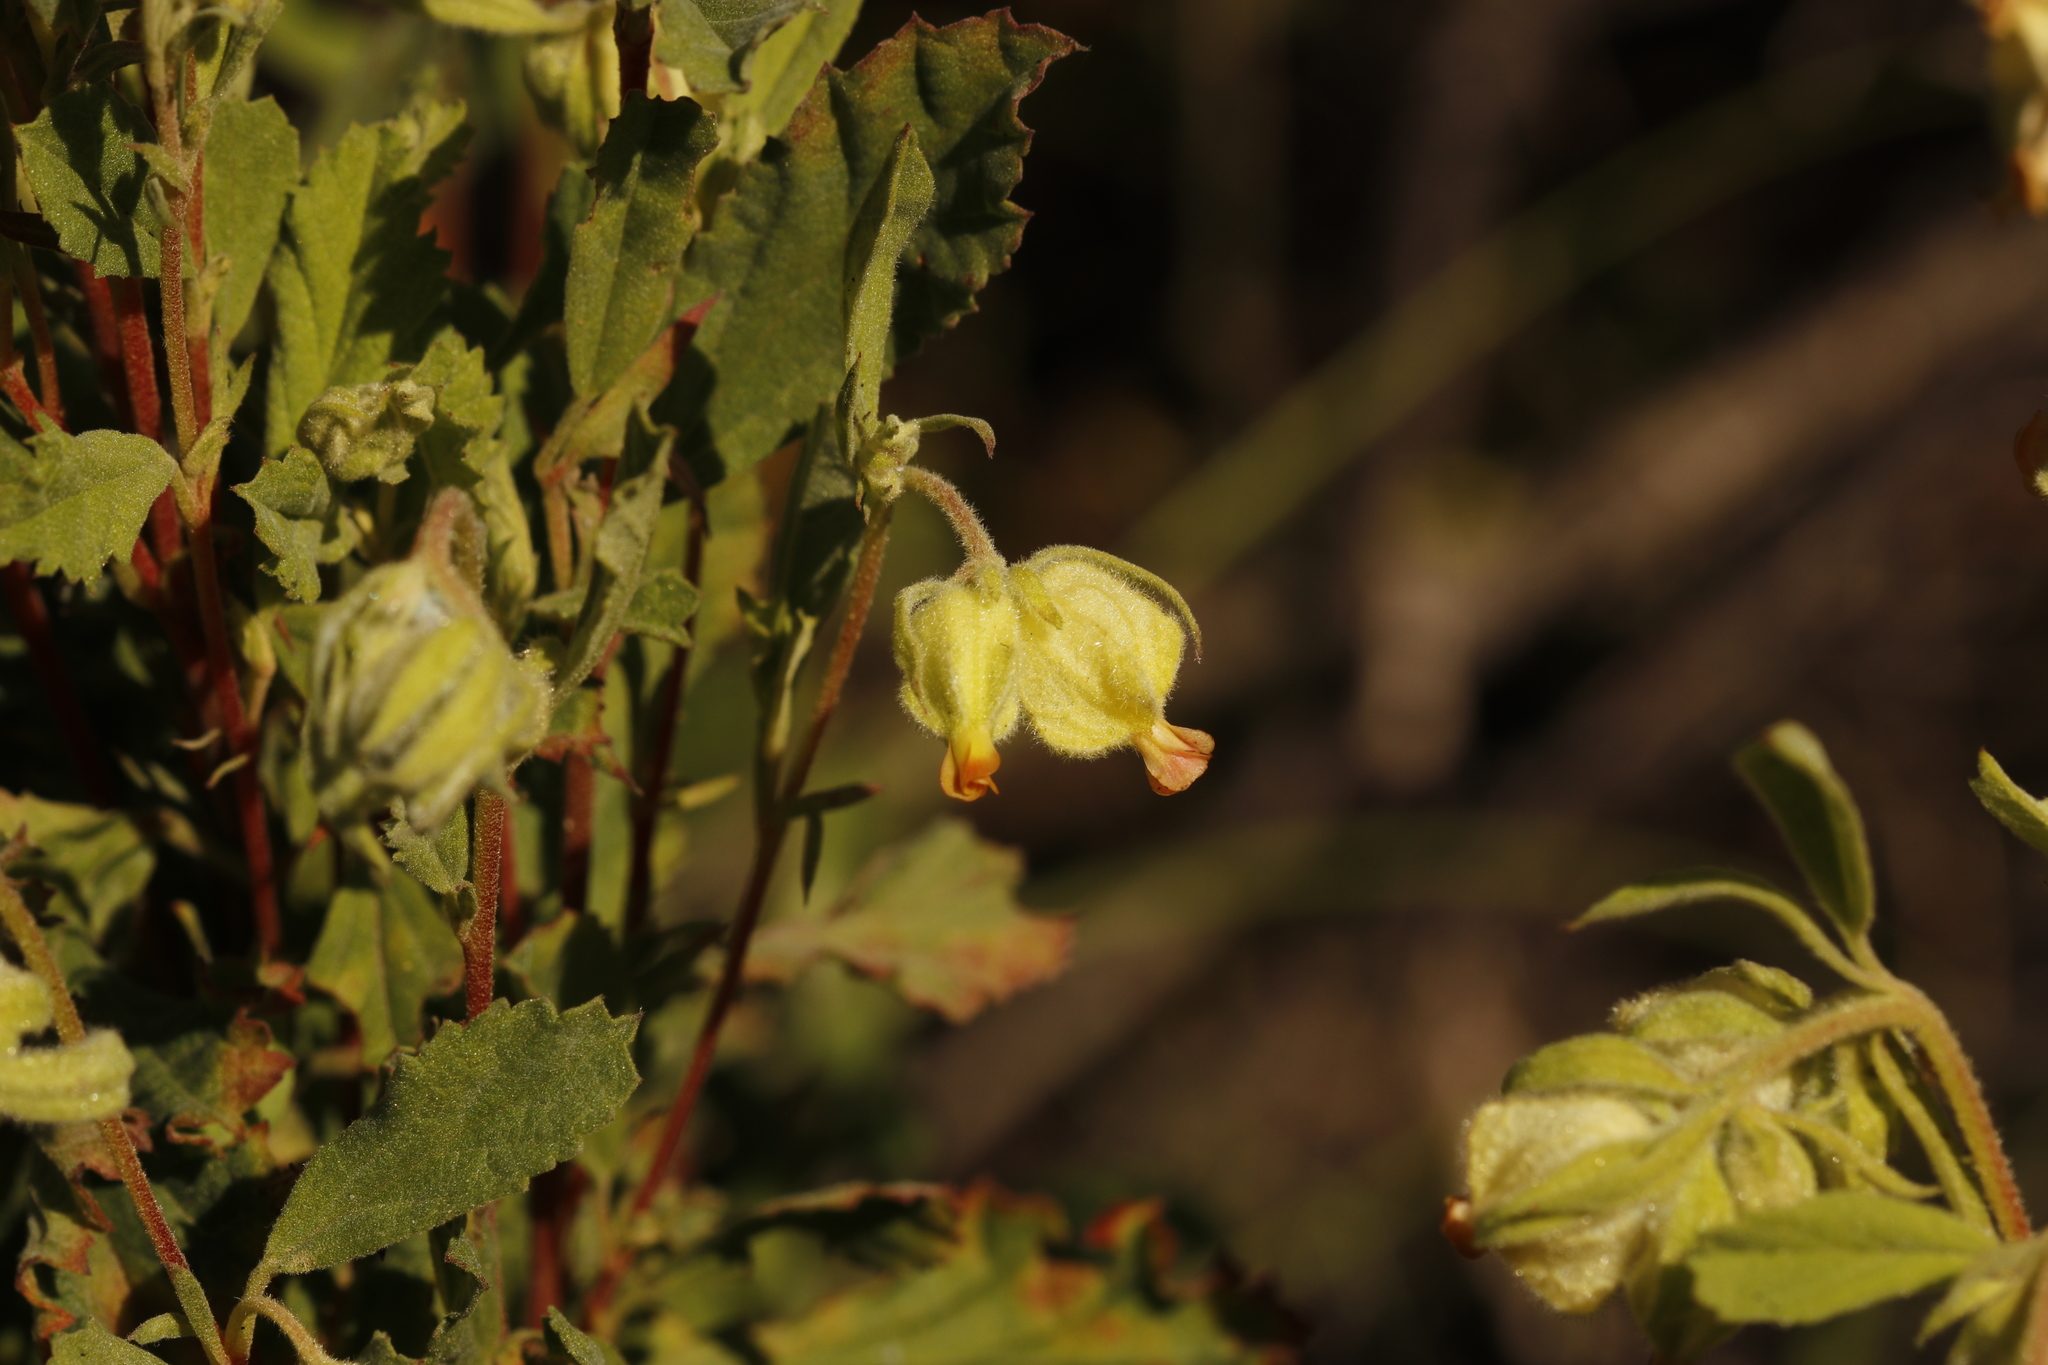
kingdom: Plantae
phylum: Tracheophyta
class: Magnoliopsida
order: Malvales
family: Malvaceae
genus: Hermannia
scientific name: Hermannia hyssopifolia
